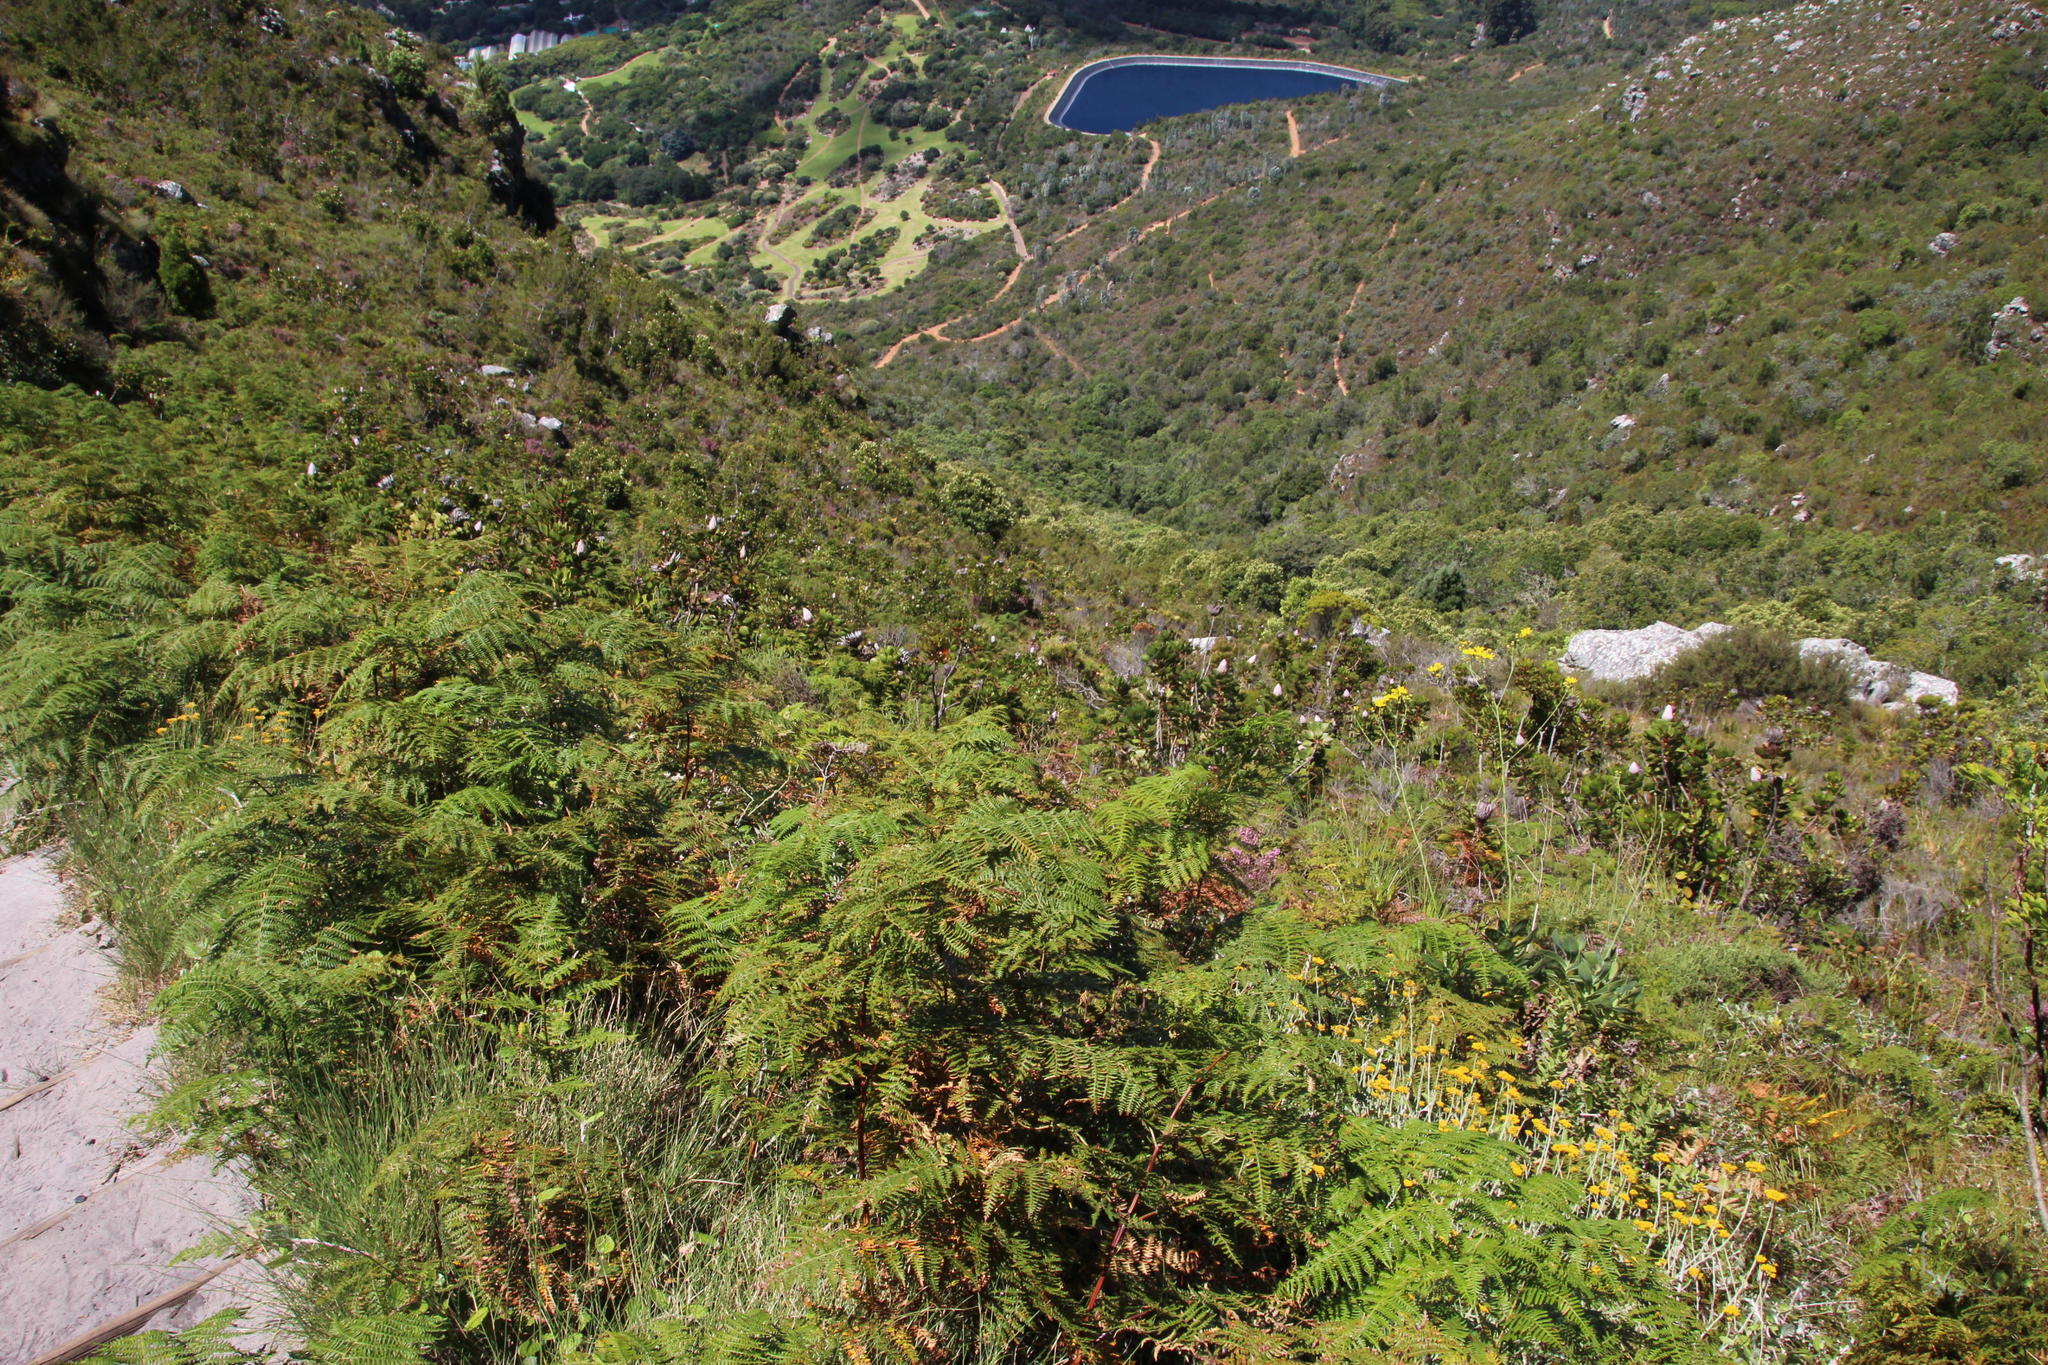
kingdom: Plantae
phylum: Tracheophyta
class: Polypodiopsida
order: Polypodiales
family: Dennstaedtiaceae
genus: Pteridium
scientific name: Pteridium aquilinum
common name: Bracken
